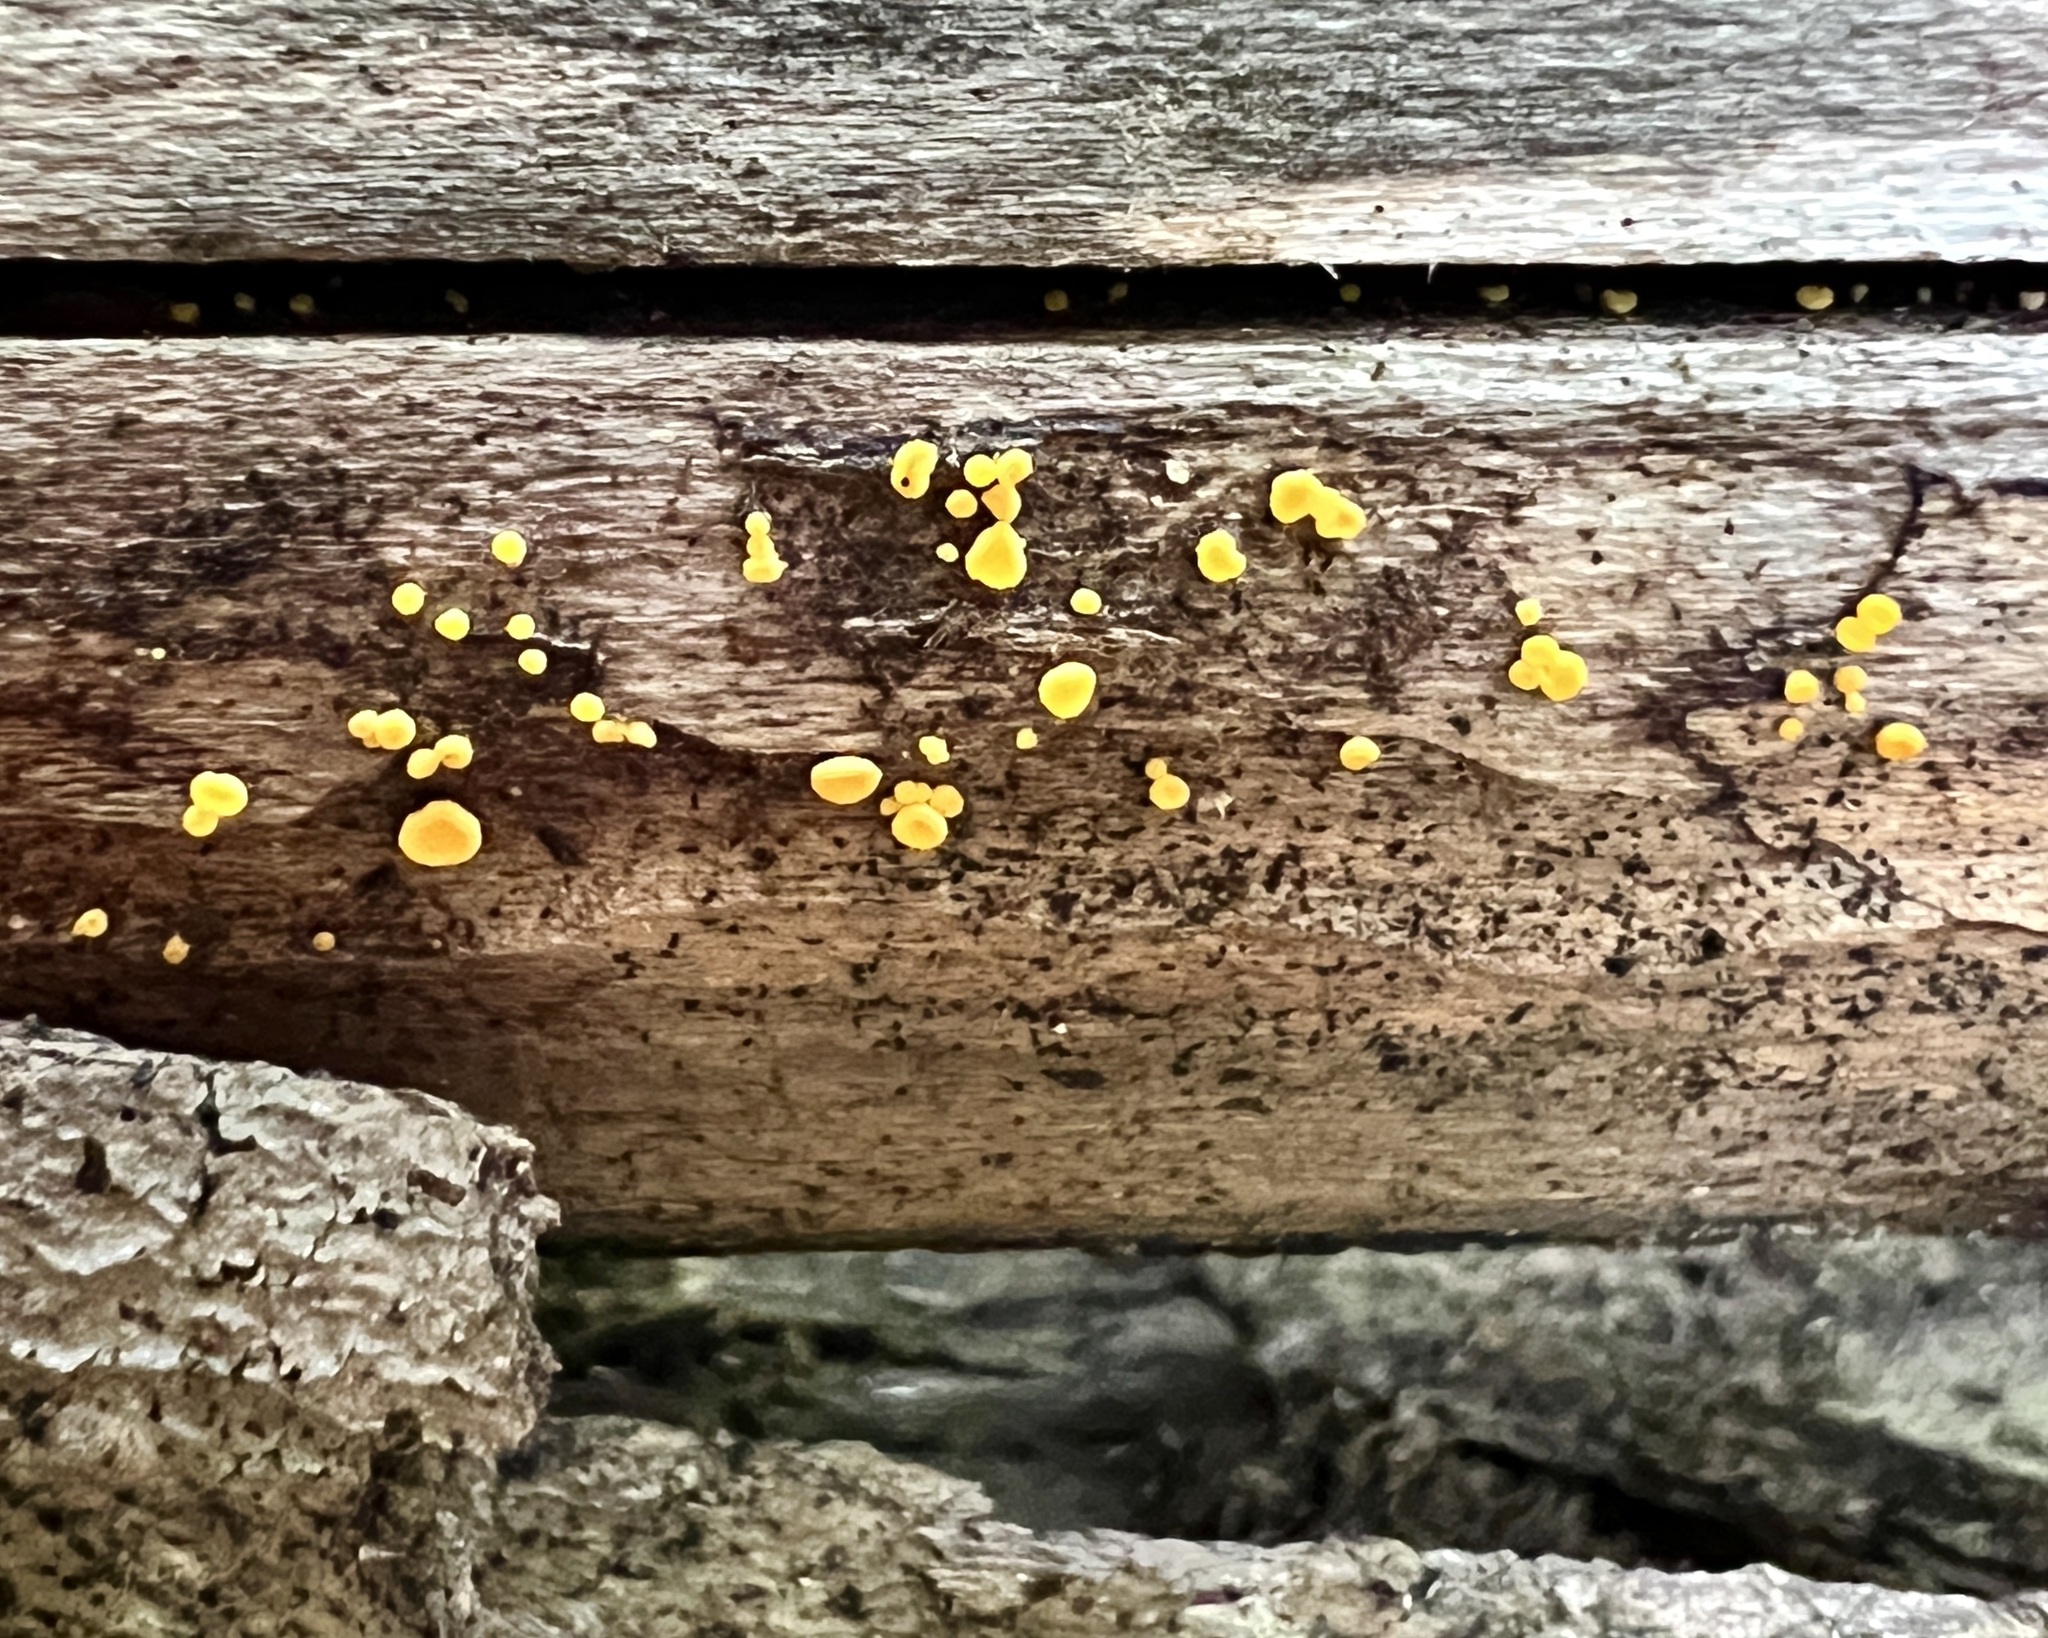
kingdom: Fungi
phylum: Ascomycota
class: Leotiomycetes
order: Helotiales
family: Pezizellaceae
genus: Calycina
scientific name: Calycina citrina
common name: Yellow fairy cups
